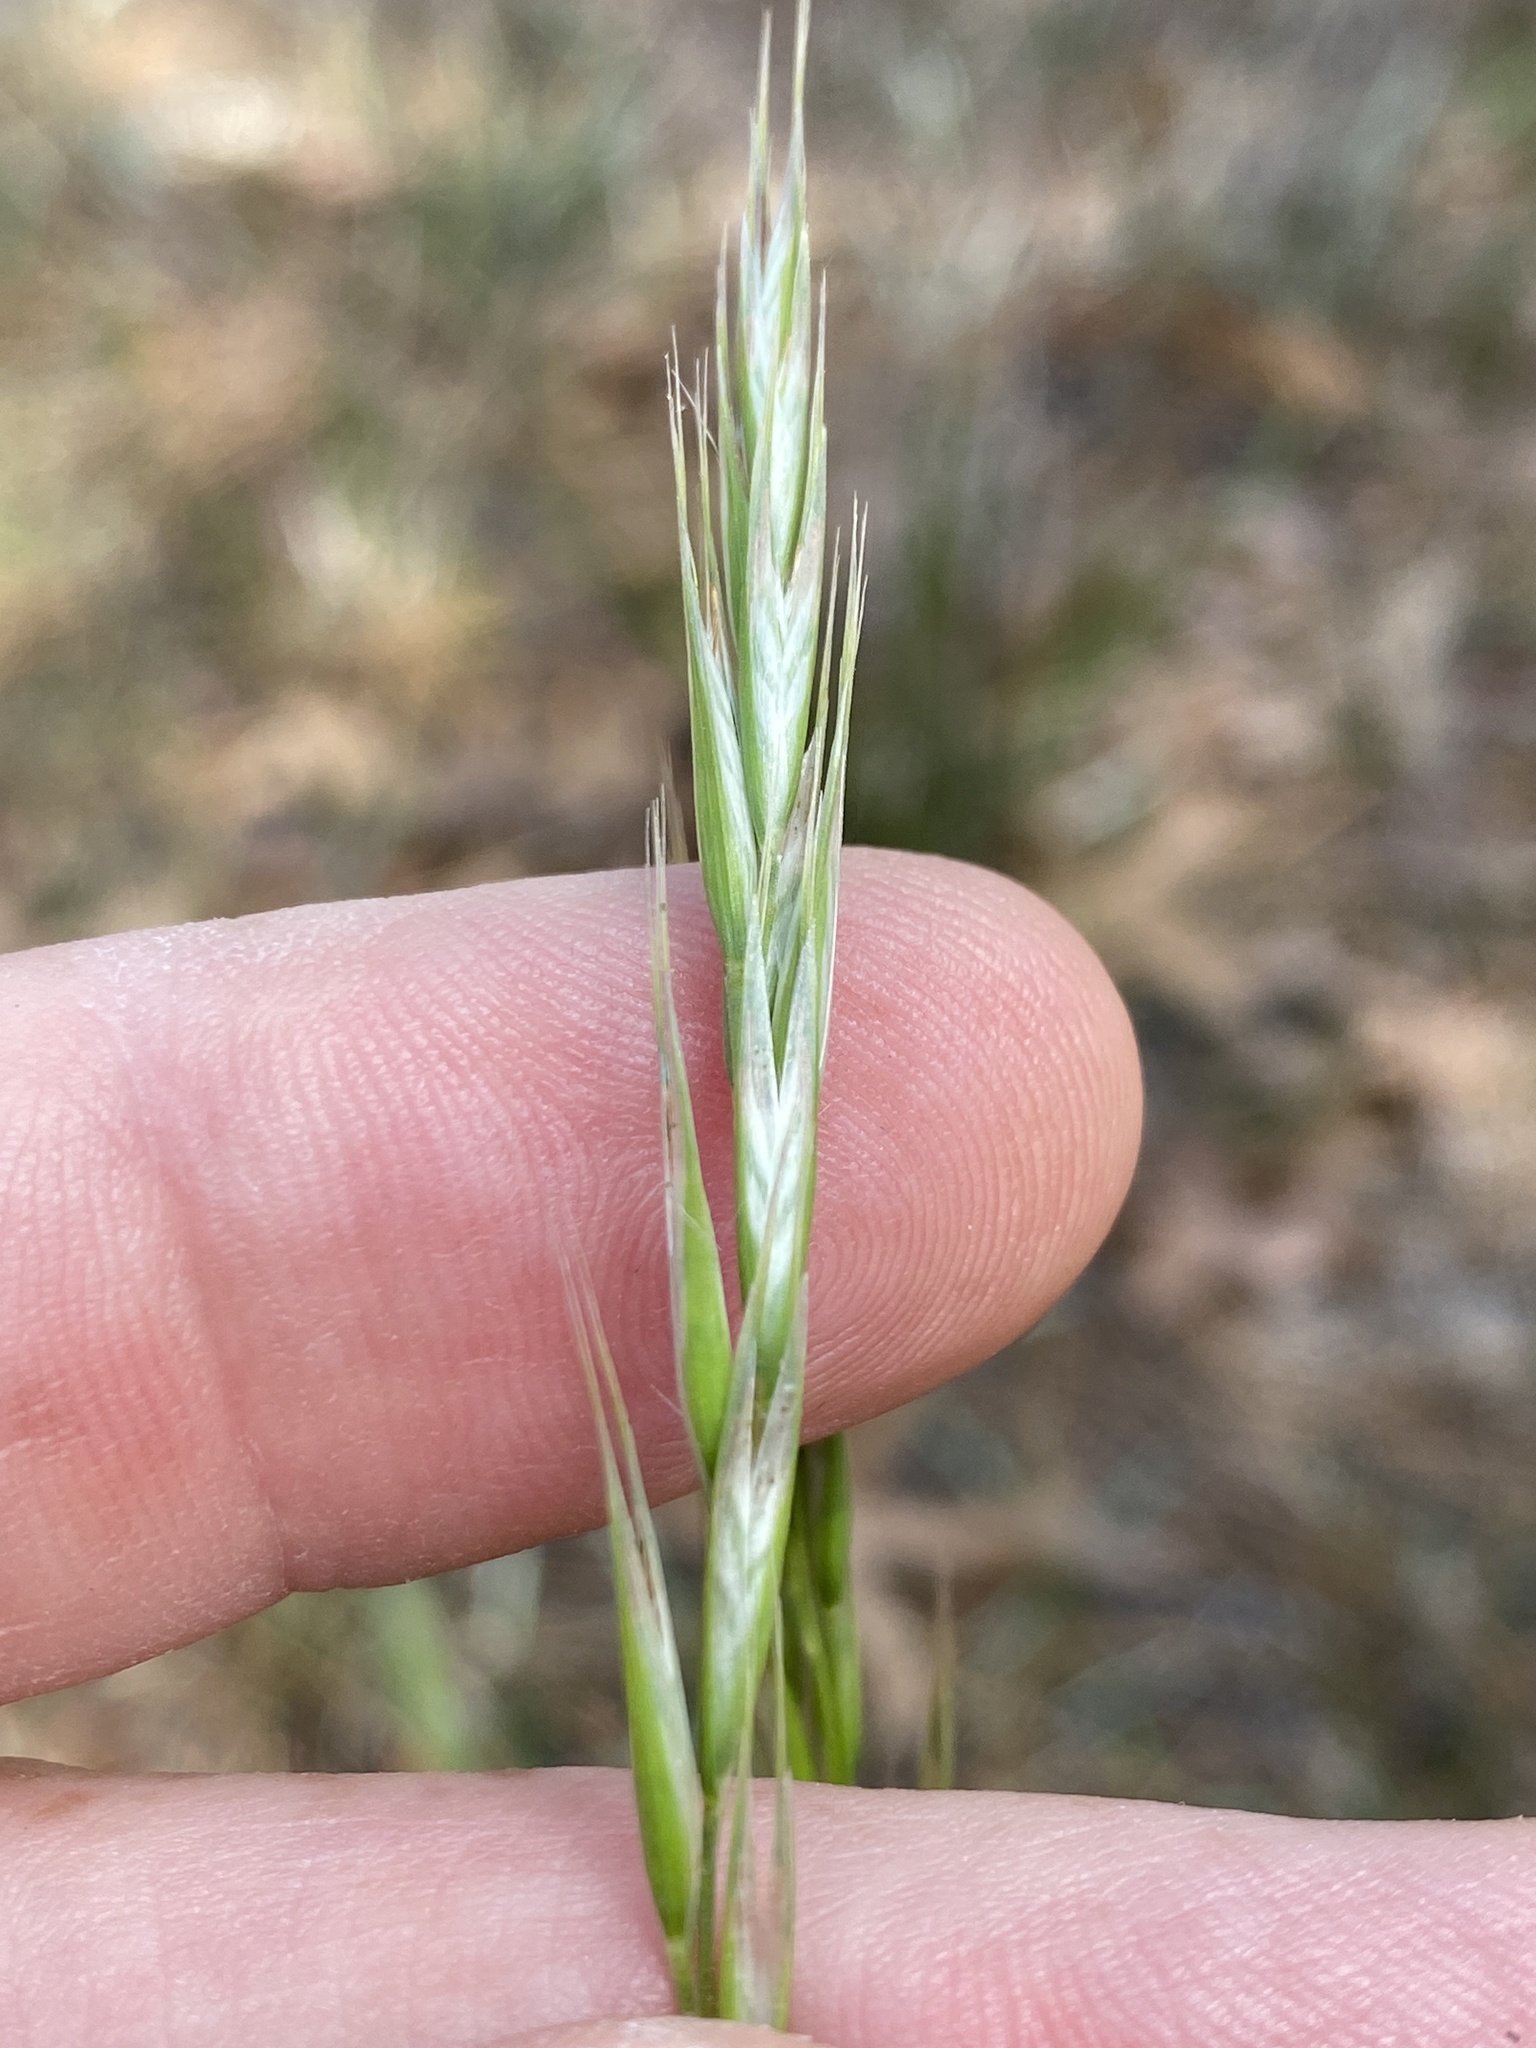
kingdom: Plantae
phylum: Tracheophyta
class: Liliopsida
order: Poales
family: Poaceae
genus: Danthonia
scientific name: Danthonia sericea
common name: Downy danthonia
